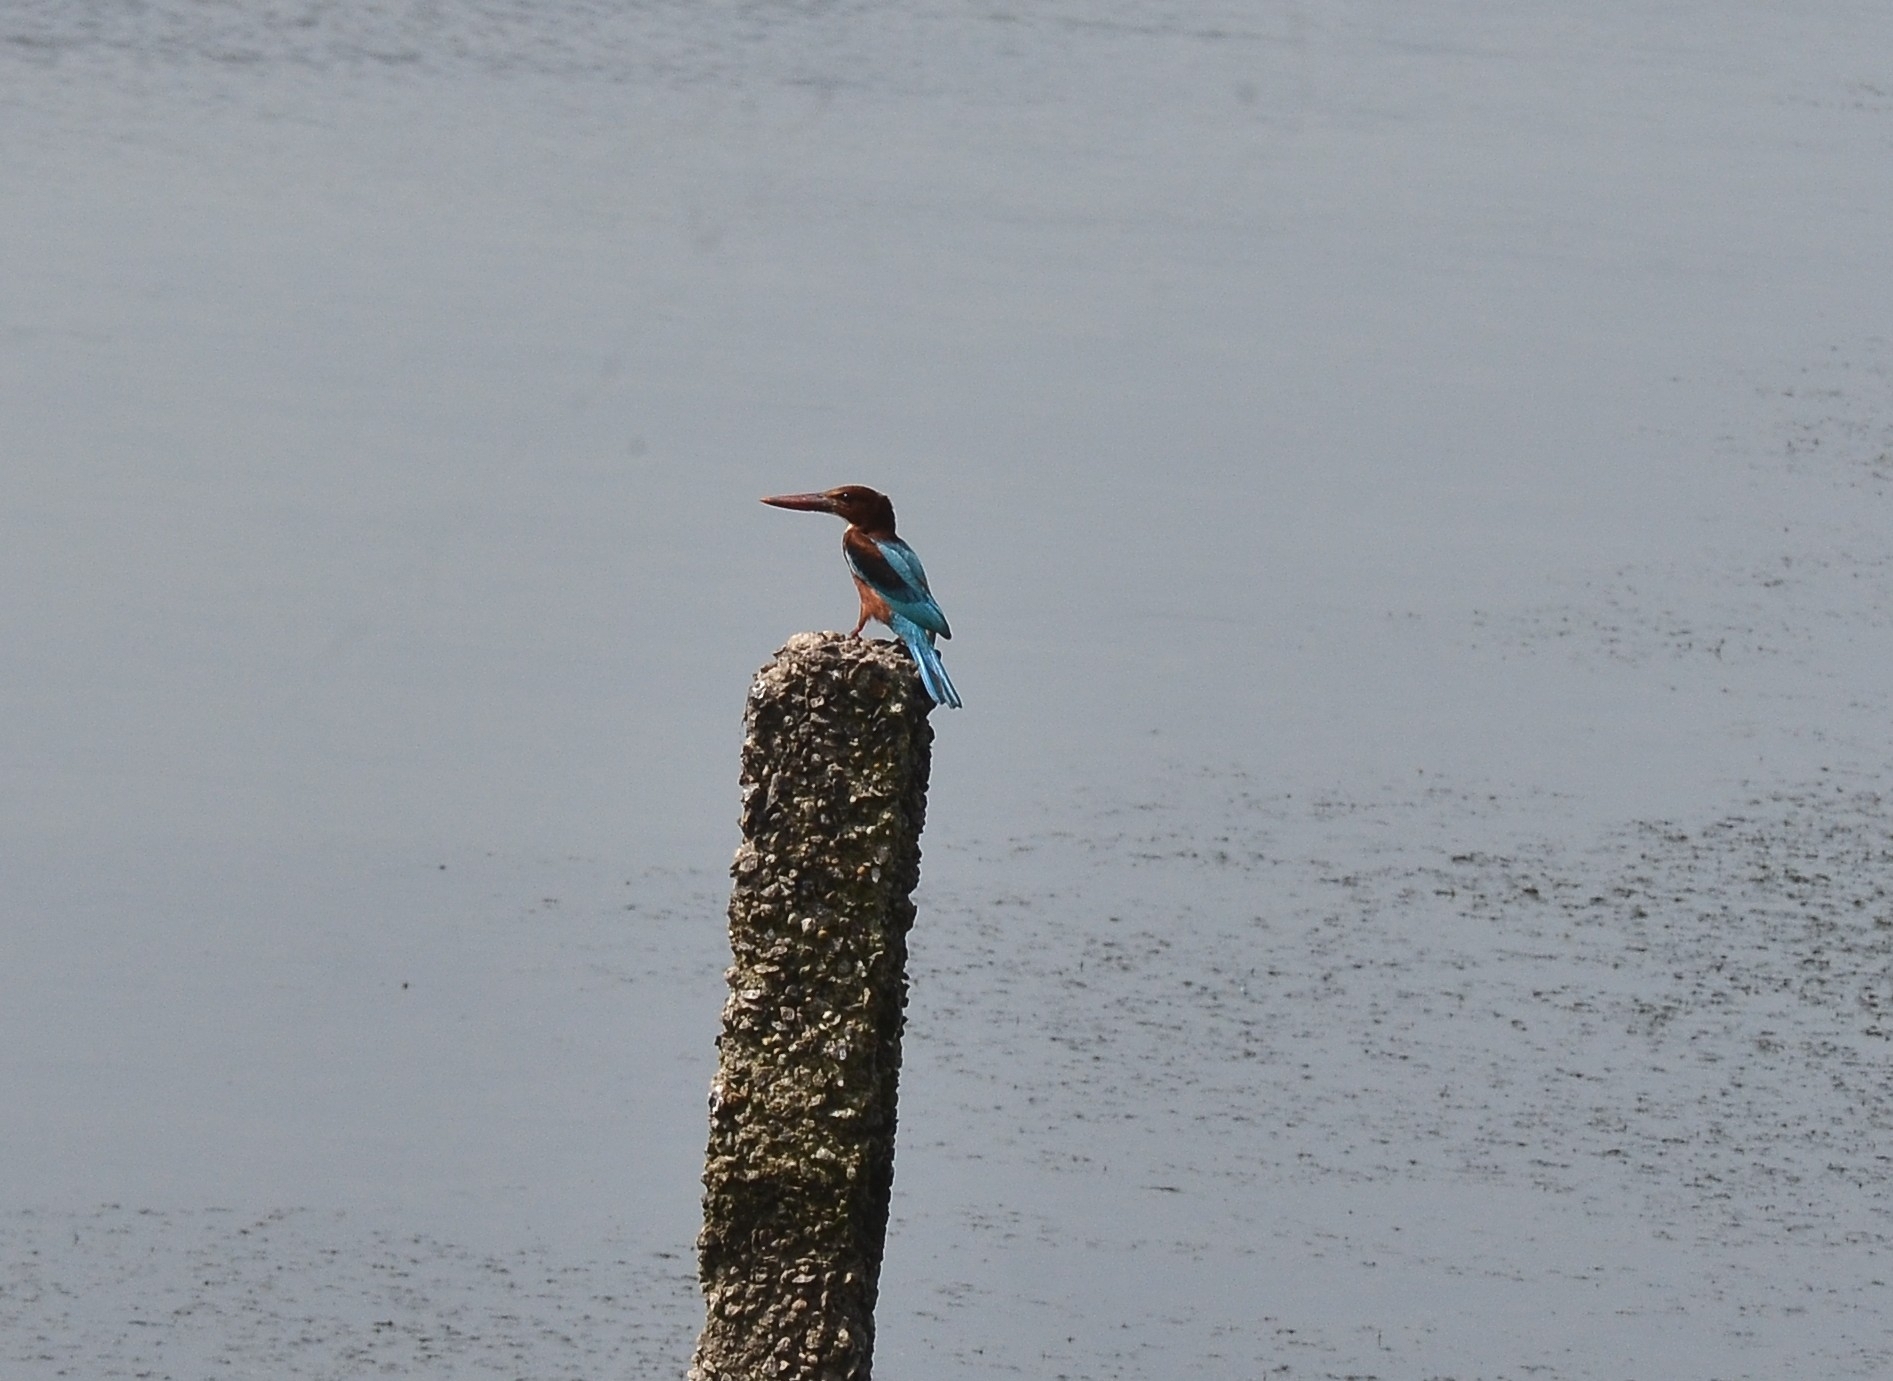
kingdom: Animalia
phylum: Chordata
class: Aves
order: Coraciiformes
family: Alcedinidae
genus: Halcyon
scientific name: Halcyon smyrnensis
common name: White-throated kingfisher
